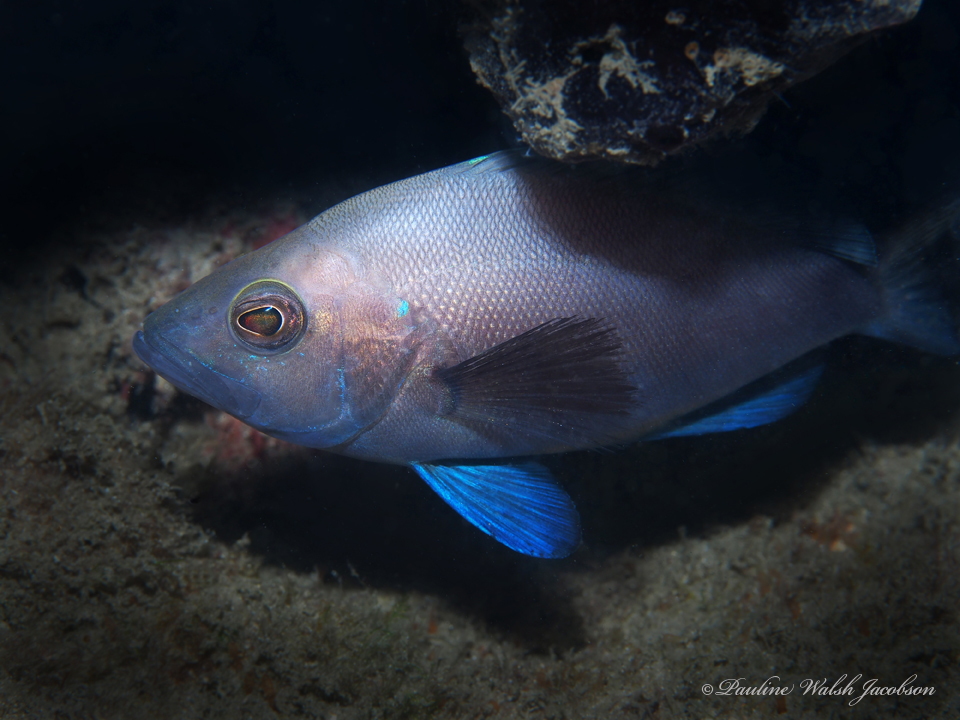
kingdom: Animalia
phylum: Chordata
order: Perciformes
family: Serranidae
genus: Hypoplectrus
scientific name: Hypoplectrus nigricans
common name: Black hamlet
